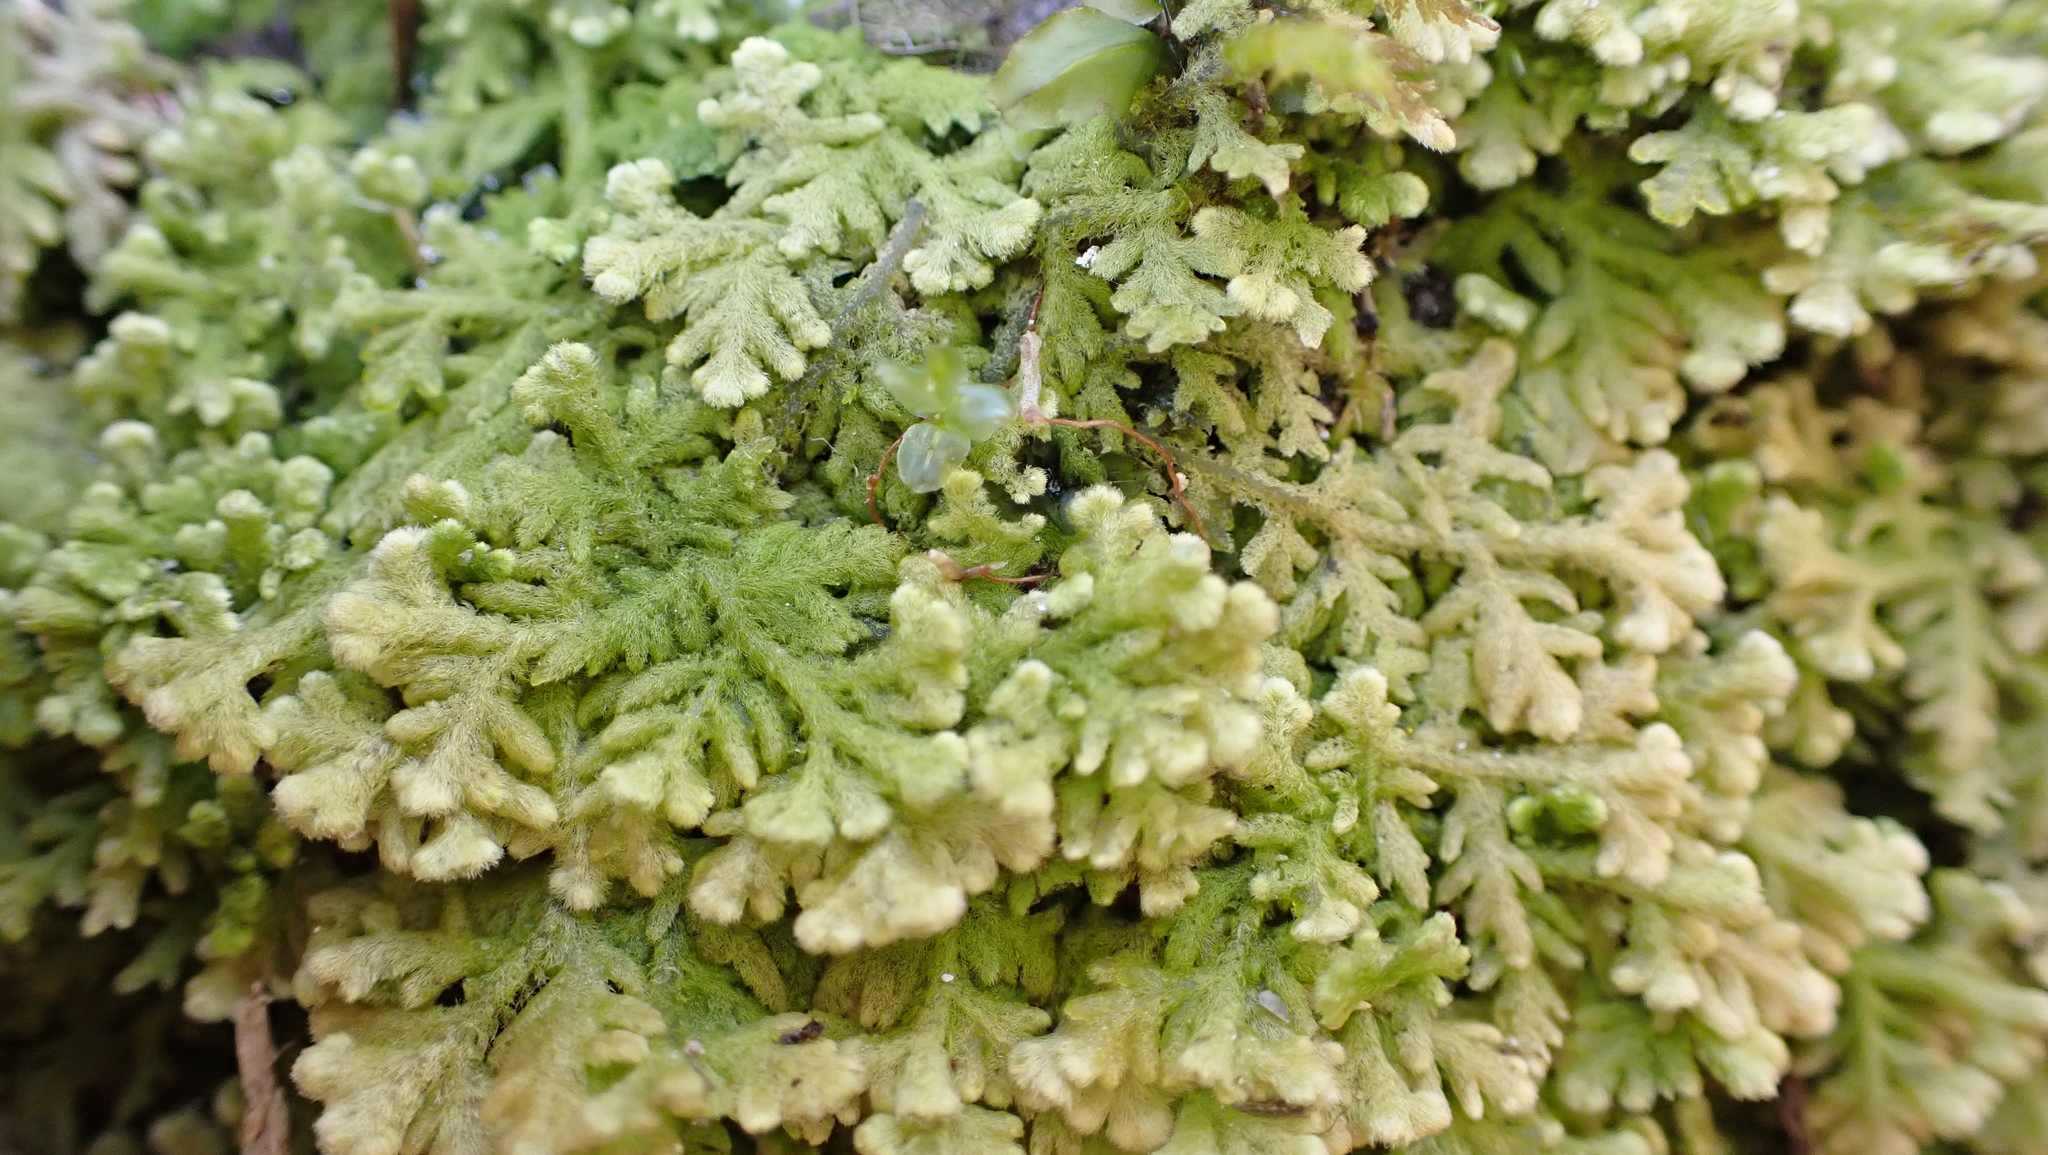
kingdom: Plantae
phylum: Marchantiophyta
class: Jungermanniopsida
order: Jungermanniales
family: Trichocoleaceae
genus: Trichocolea
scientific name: Trichocolea tomentella
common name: Woolly liverwort
